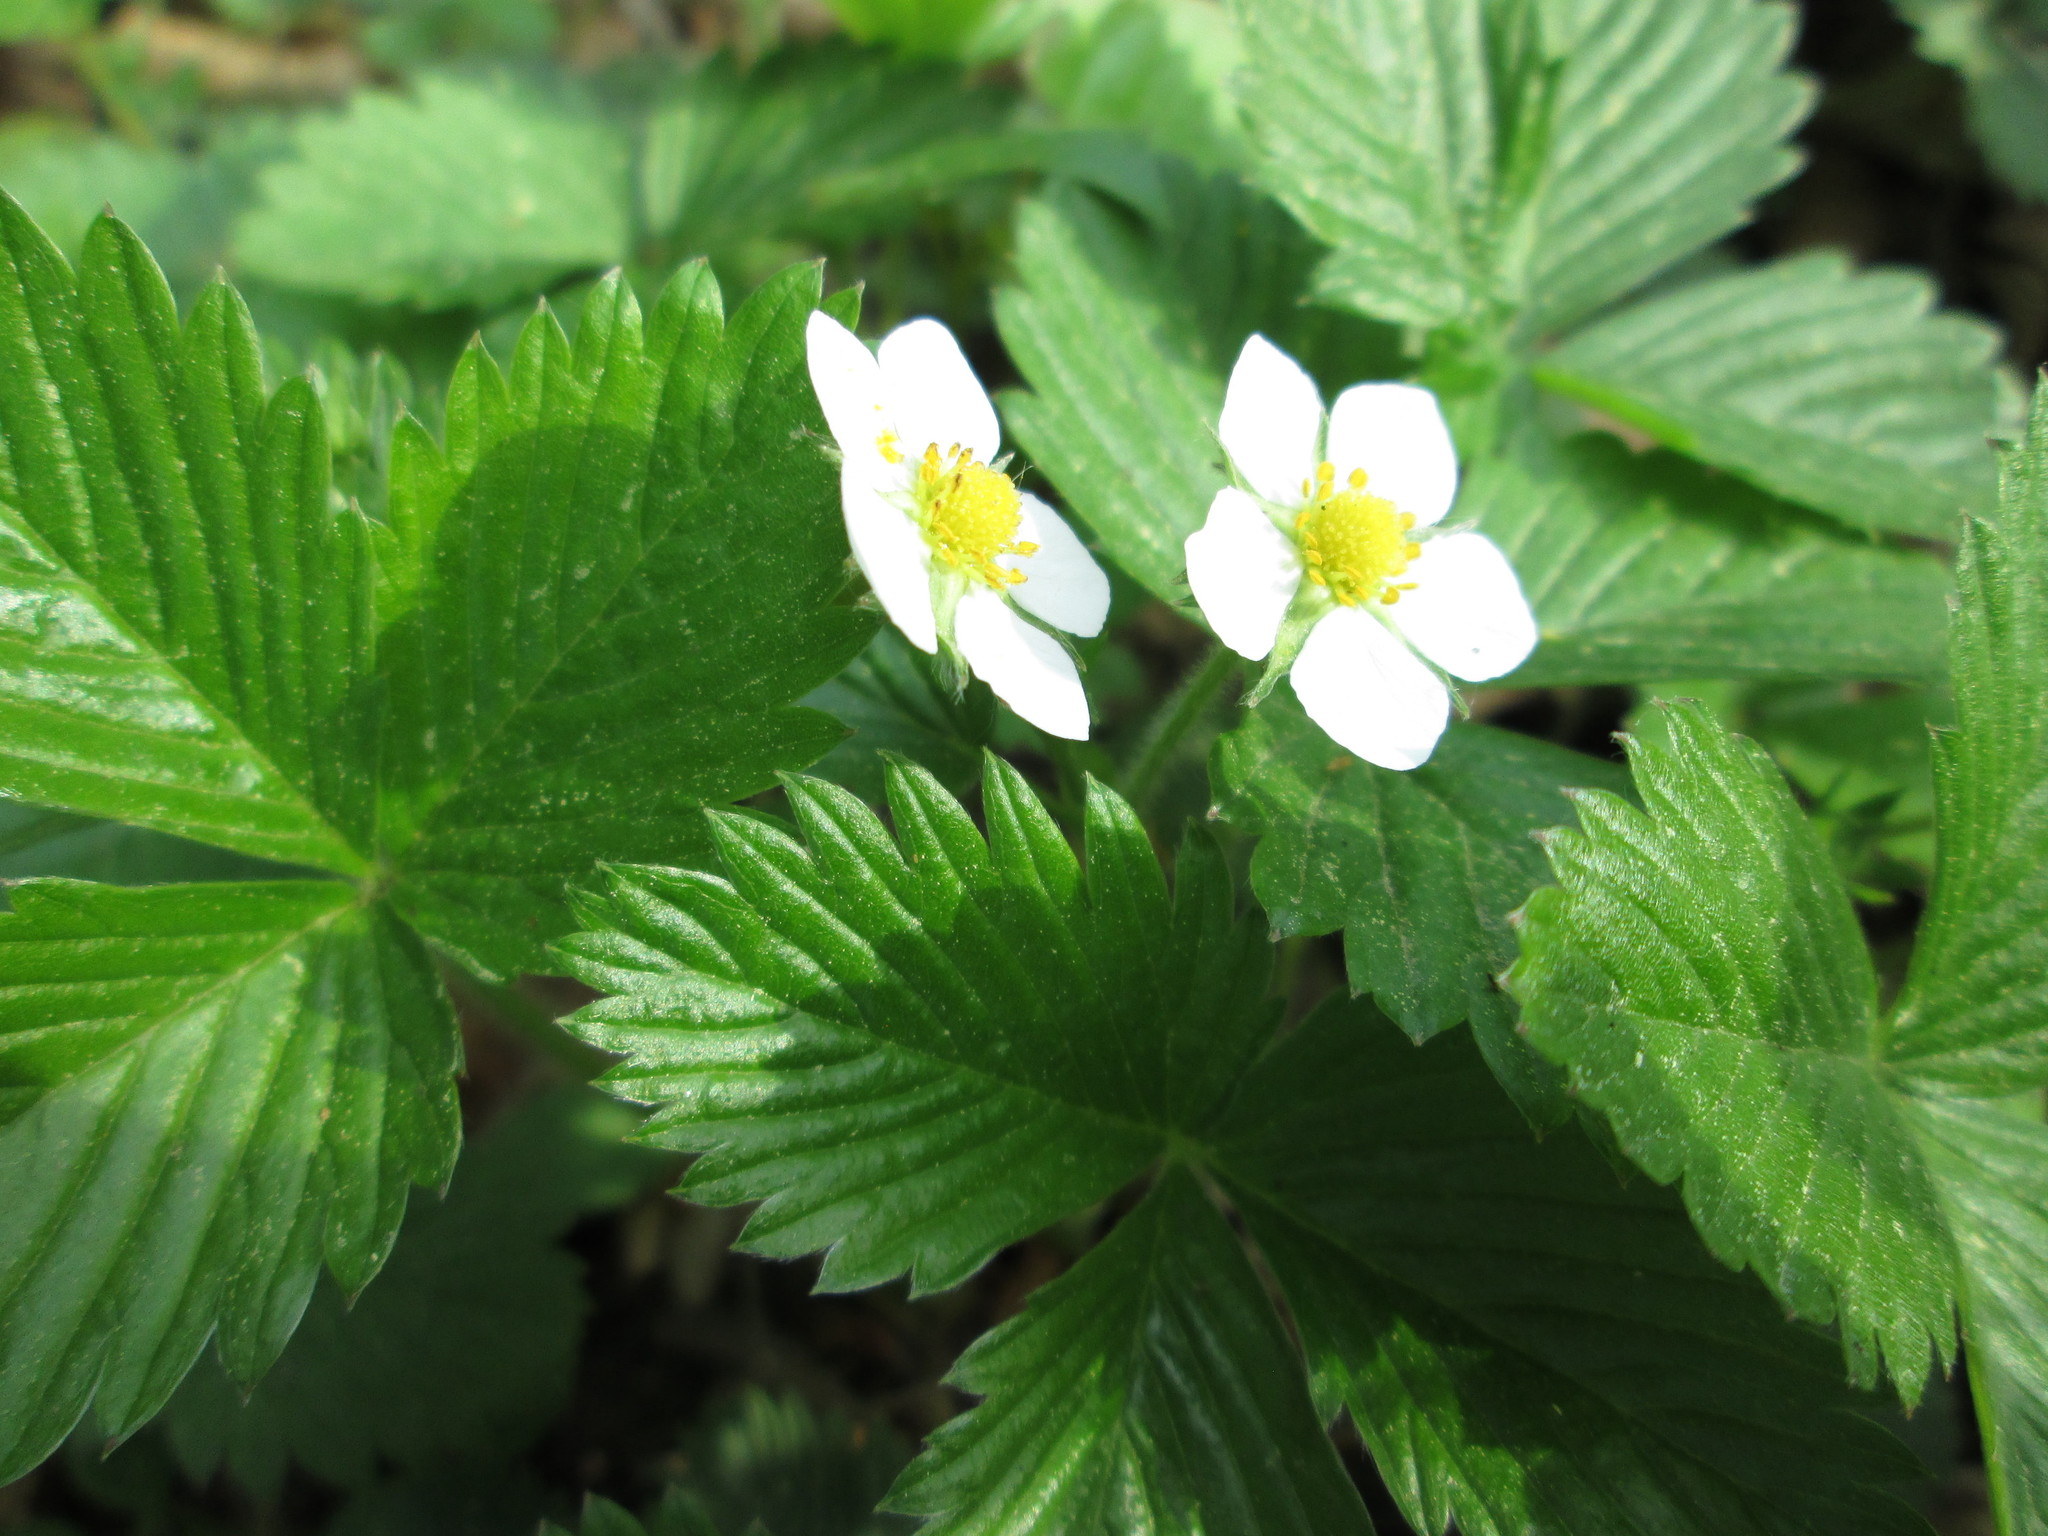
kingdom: Plantae
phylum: Tracheophyta
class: Magnoliopsida
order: Rosales
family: Rosaceae
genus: Fragaria
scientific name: Fragaria vesca
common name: Wild strawberry
